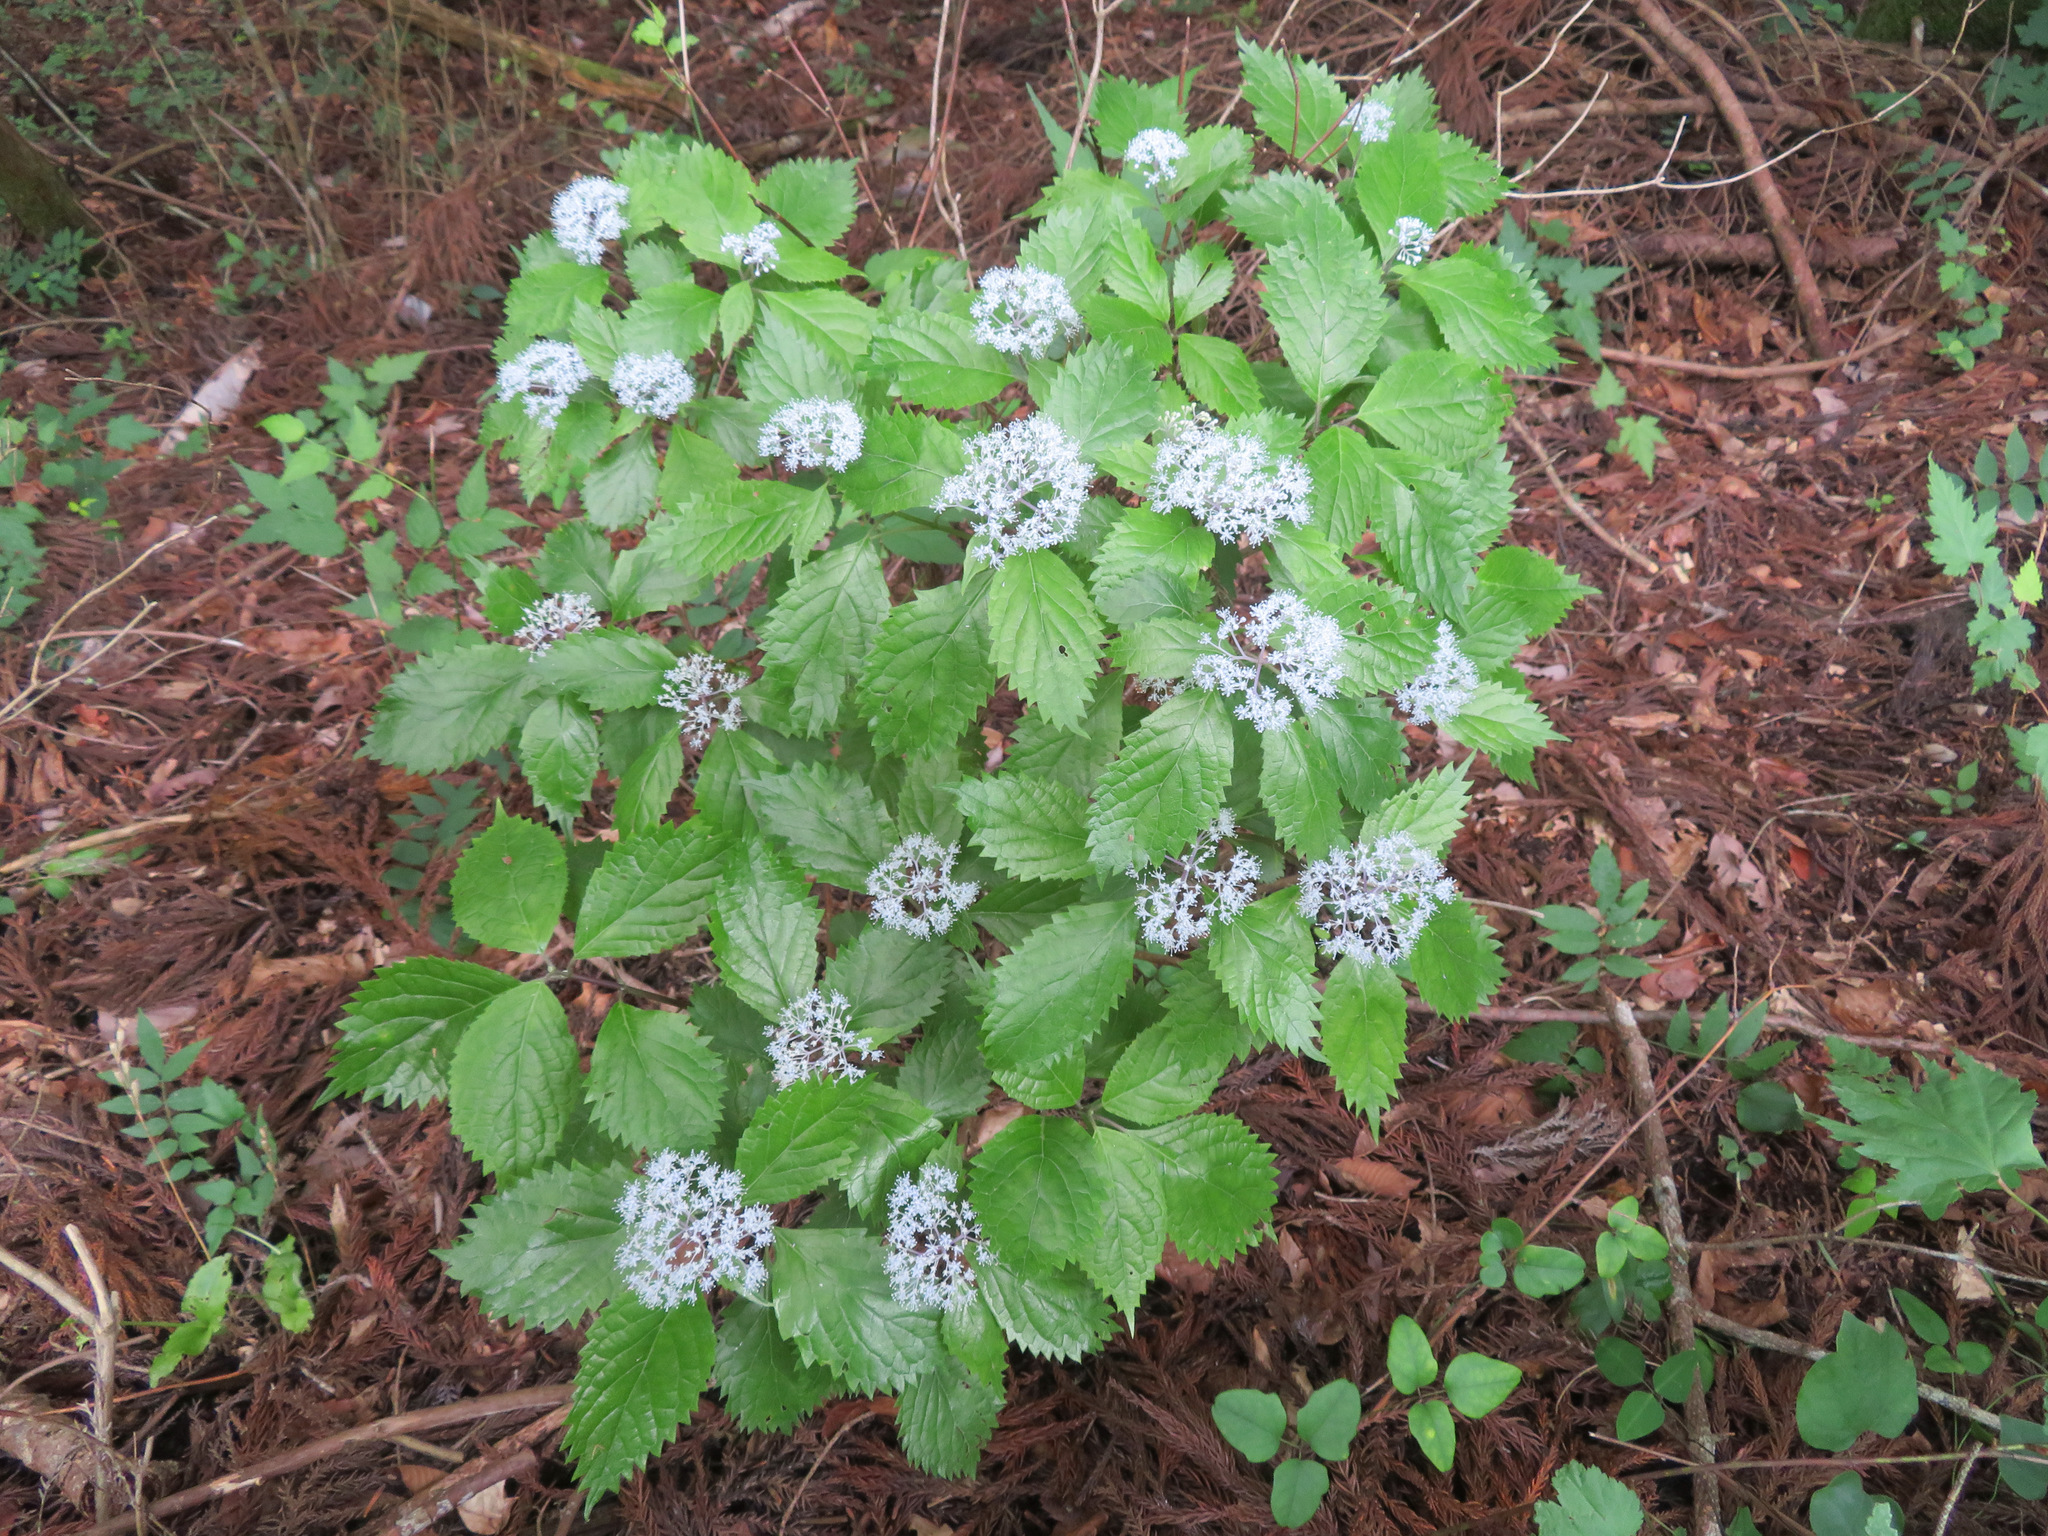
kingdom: Plantae
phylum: Tracheophyta
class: Magnoliopsida
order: Cornales
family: Hydrangeaceae
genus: Hydrangea
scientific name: Hydrangea hirta
